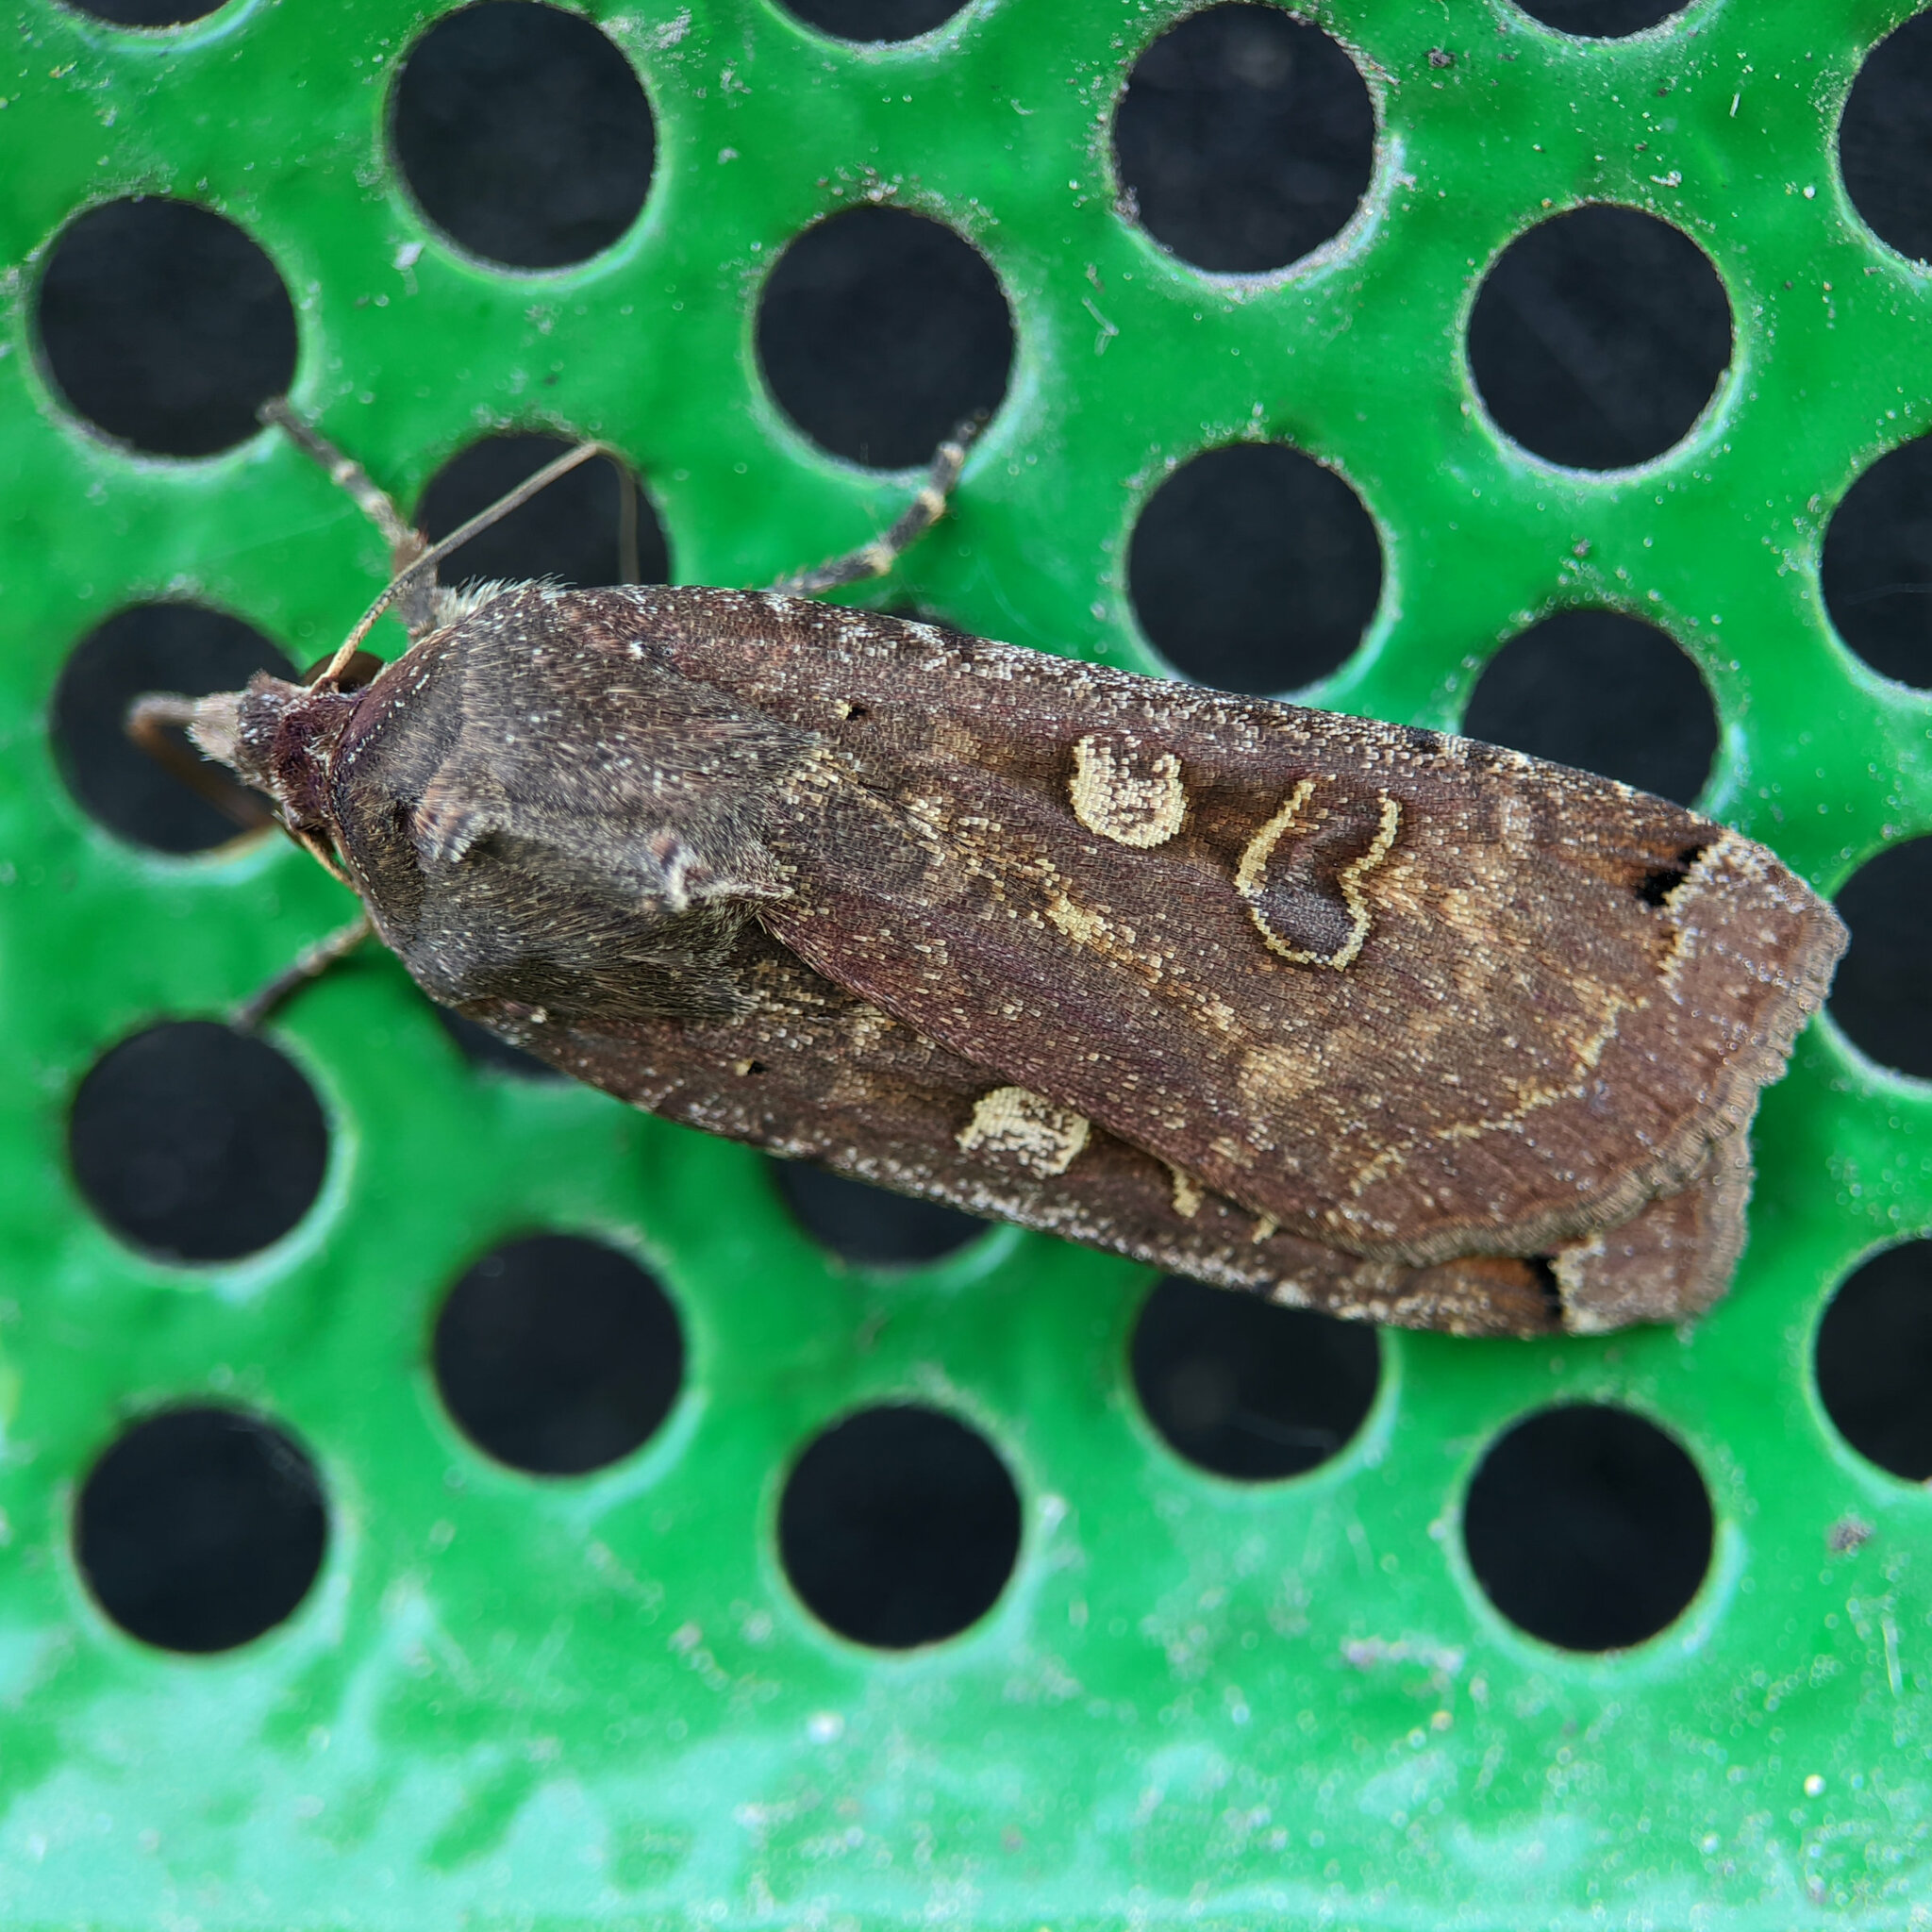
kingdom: Animalia
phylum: Arthropoda
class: Insecta
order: Lepidoptera
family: Noctuidae
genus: Noctua
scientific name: Noctua pronuba
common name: Large yellow underwing
